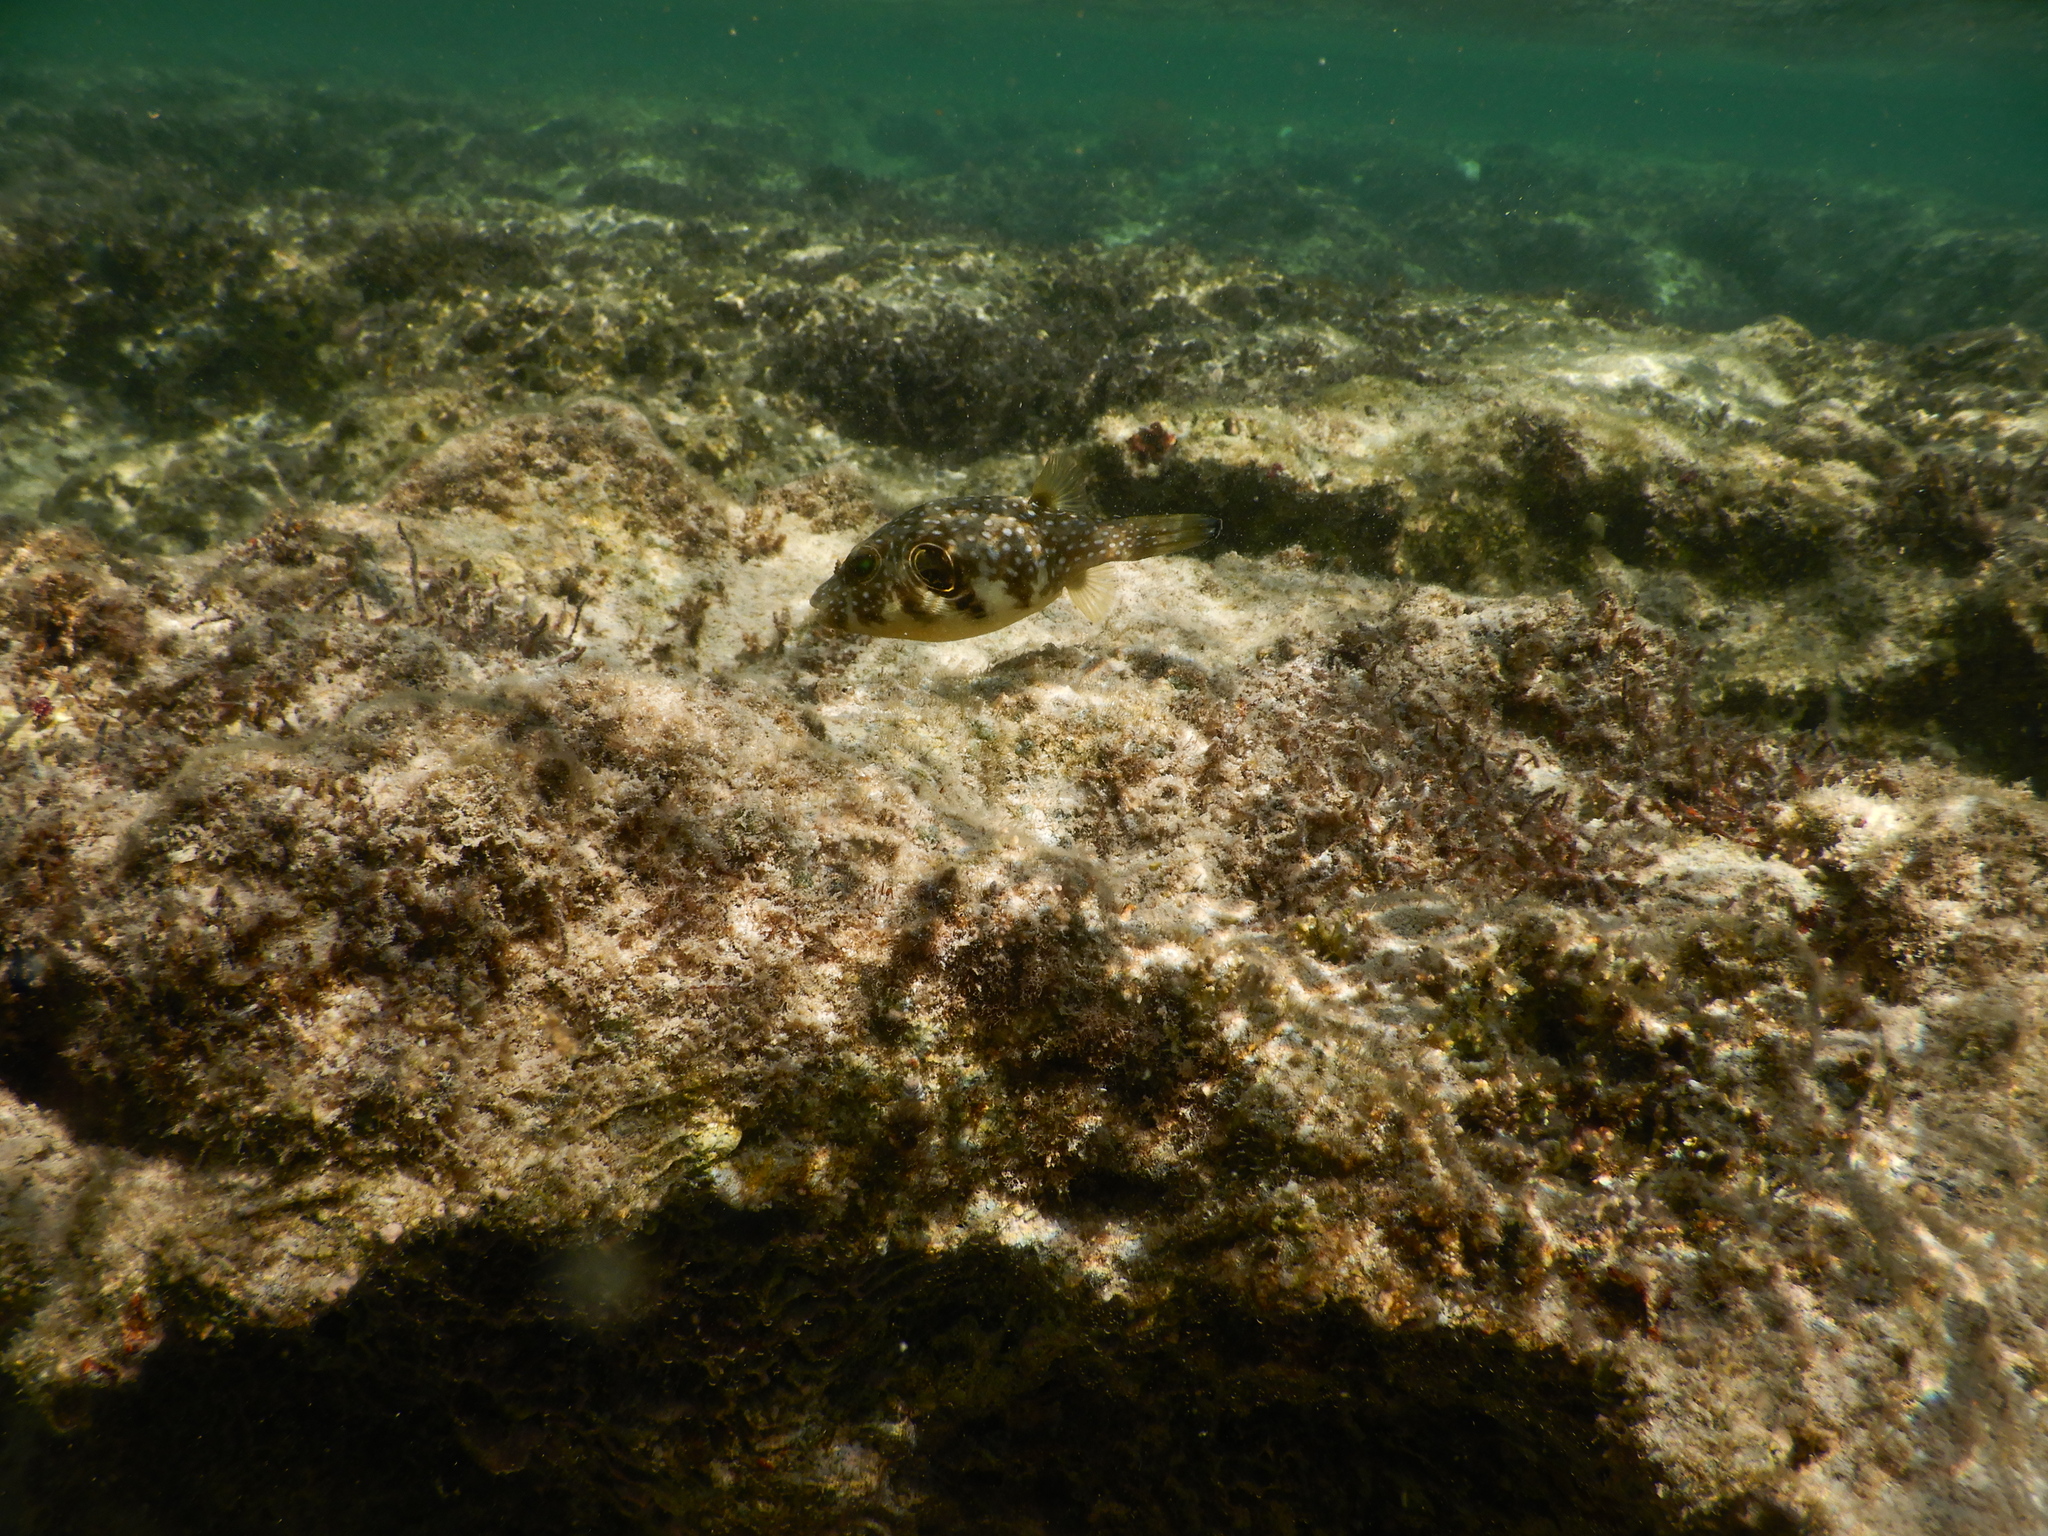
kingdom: Animalia
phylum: Chordata
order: Tetraodontiformes
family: Tetraodontidae
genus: Arothron
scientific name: Arothron hispidus
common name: Stripebelly puffer
